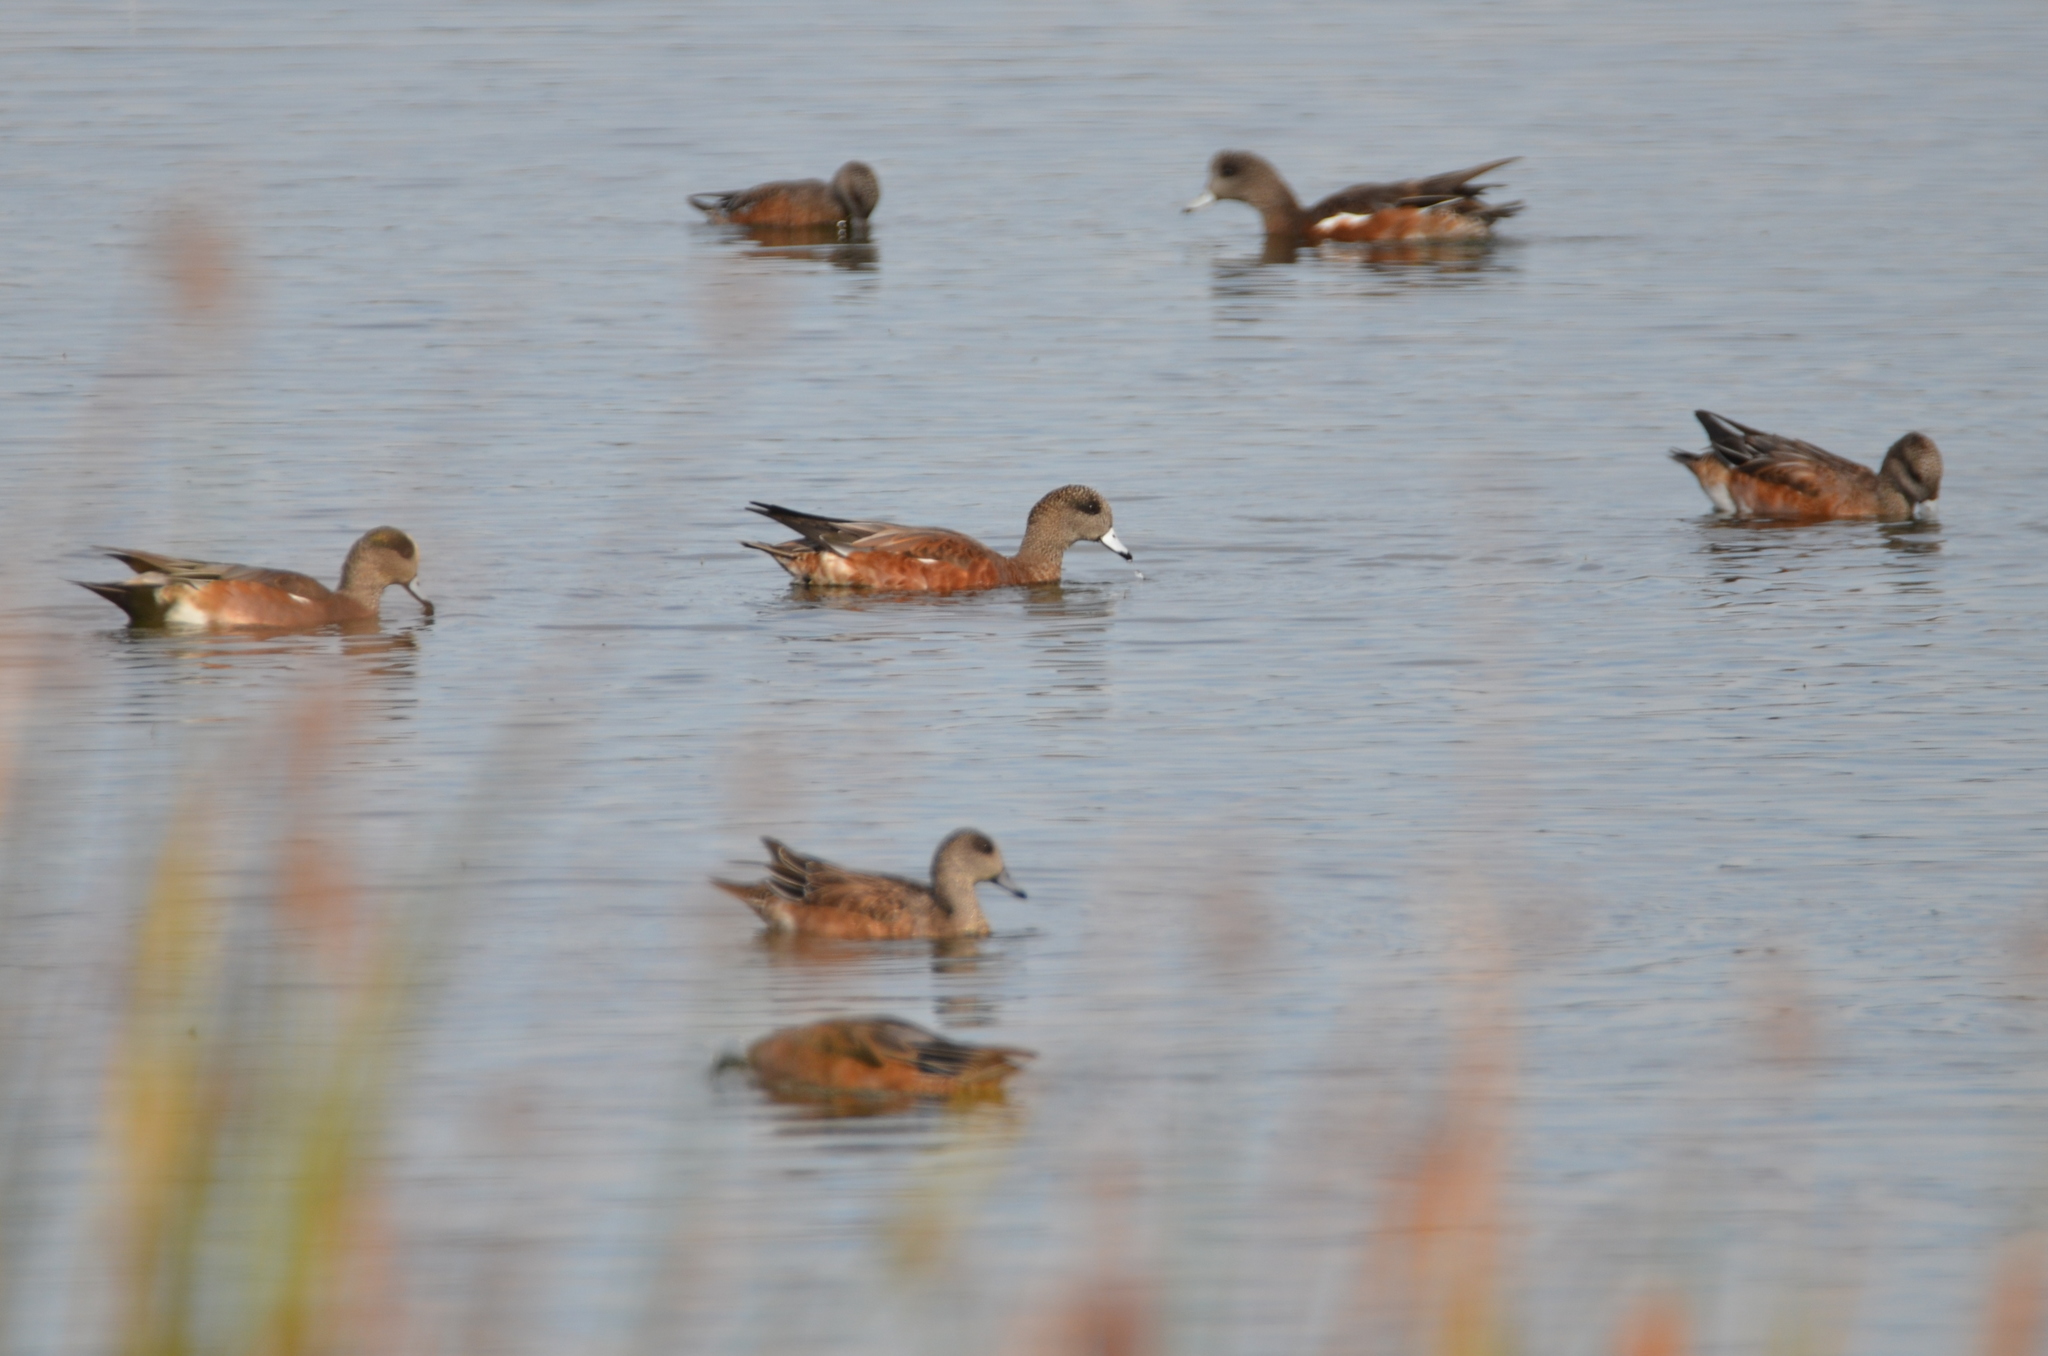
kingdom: Animalia
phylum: Chordata
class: Aves
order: Anseriformes
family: Anatidae
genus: Mareca
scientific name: Mareca americana
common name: American wigeon
